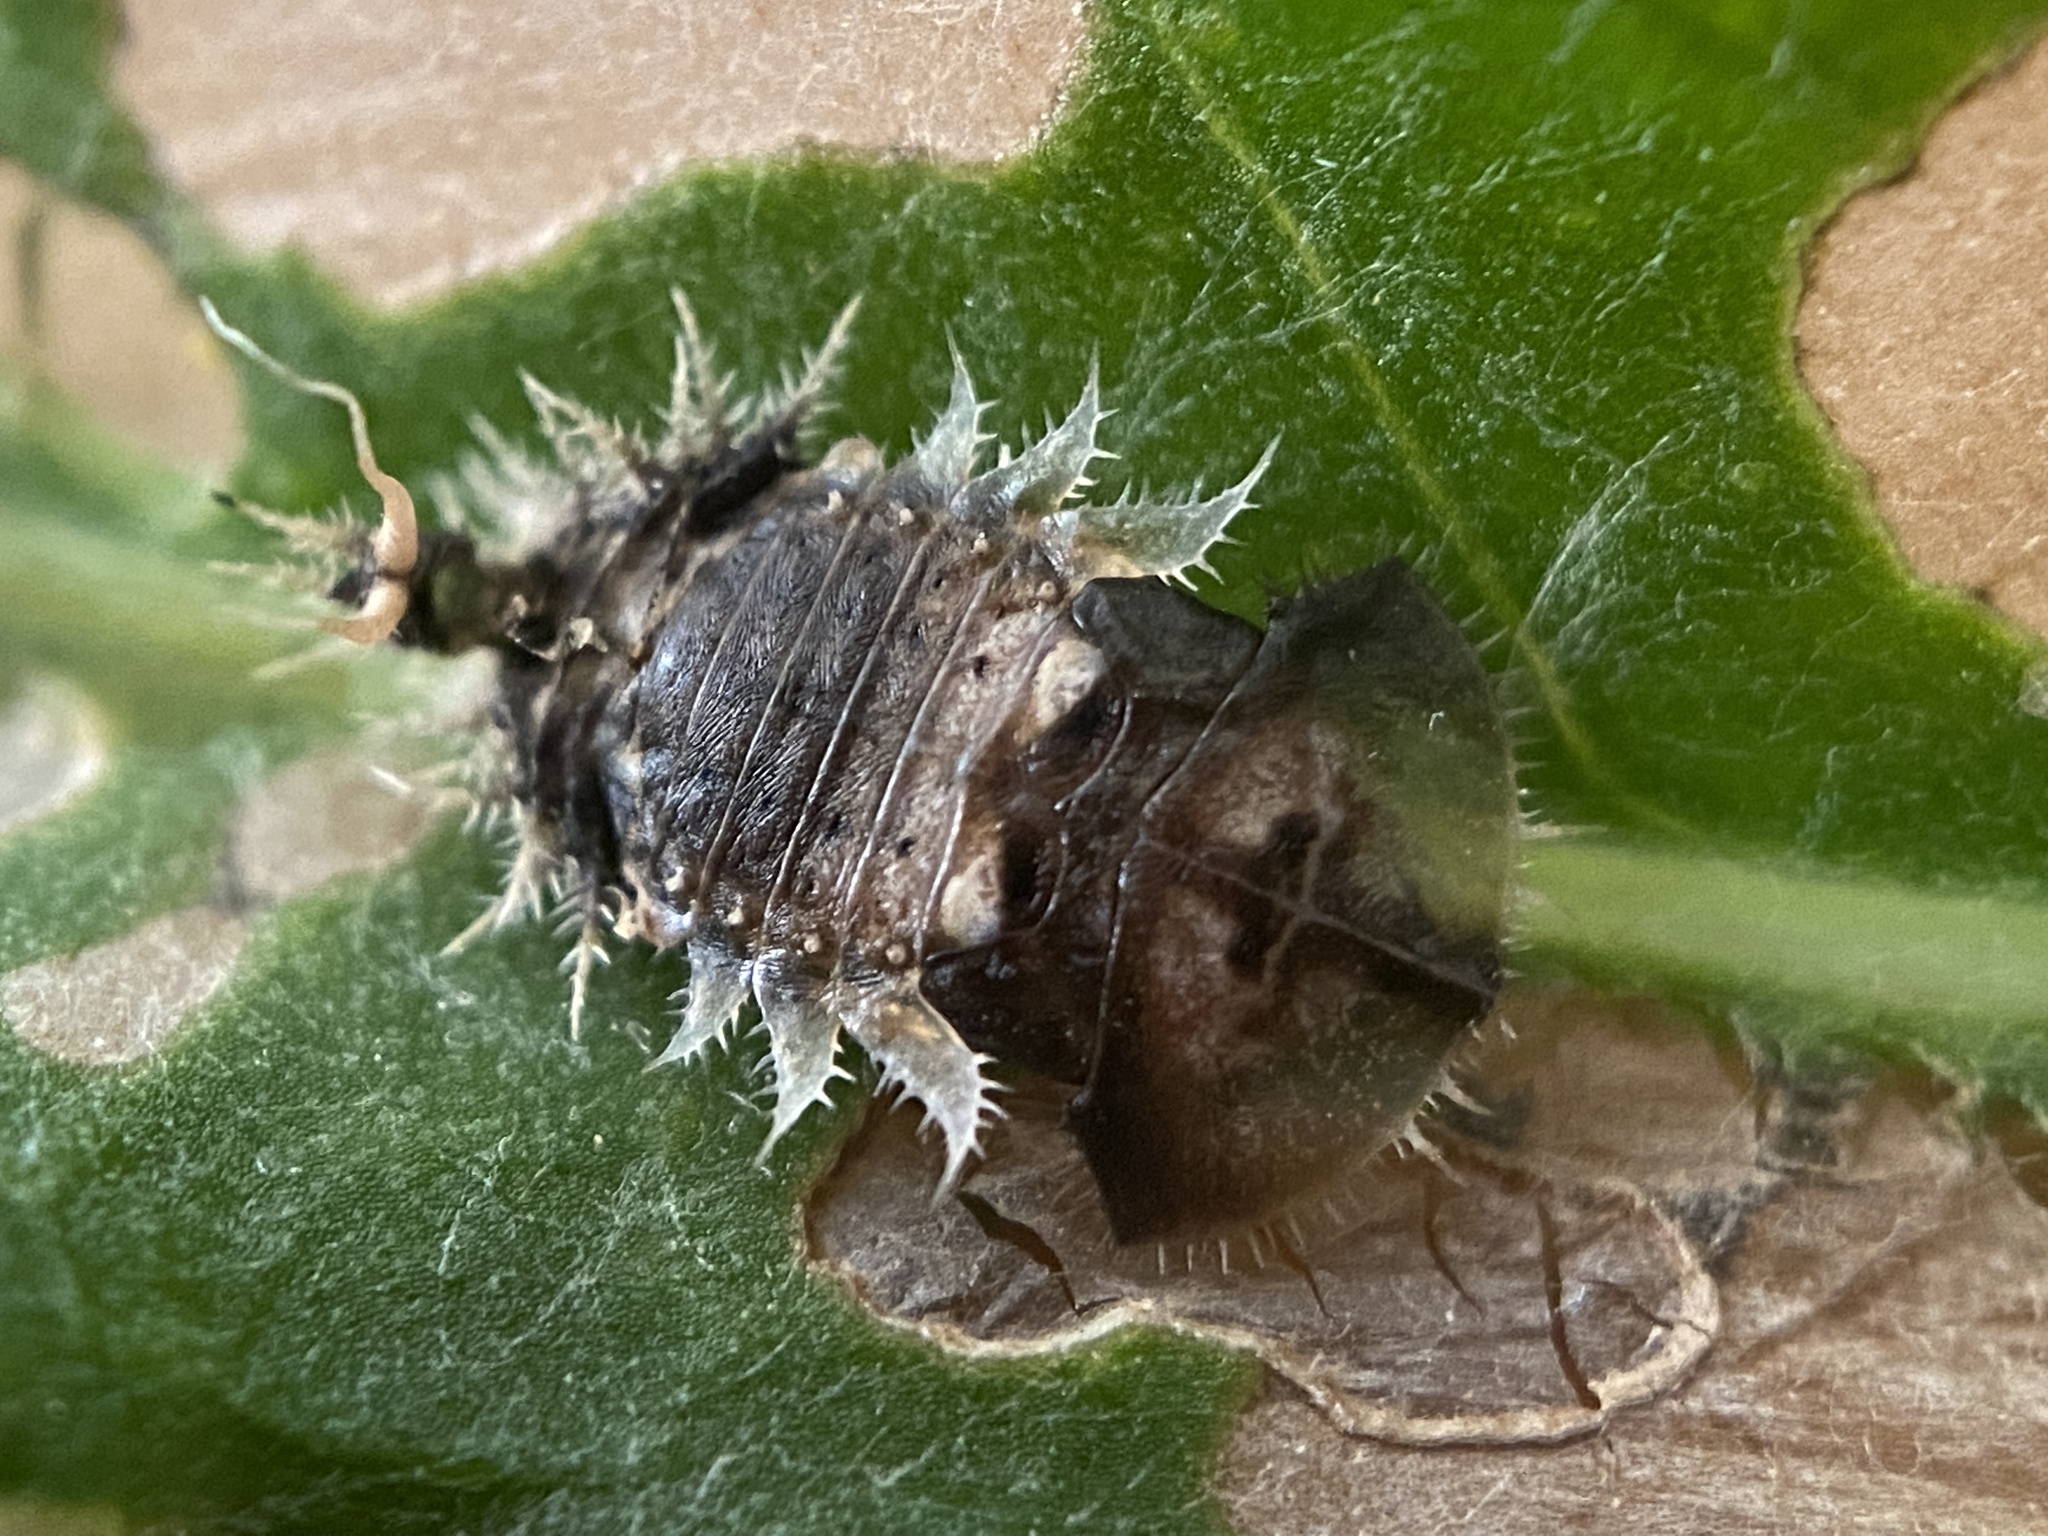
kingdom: Animalia
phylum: Arthropoda
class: Insecta
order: Coleoptera
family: Chrysomelidae
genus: Cassida
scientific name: Cassida rubiginosa
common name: Thistle tortoise beetle
